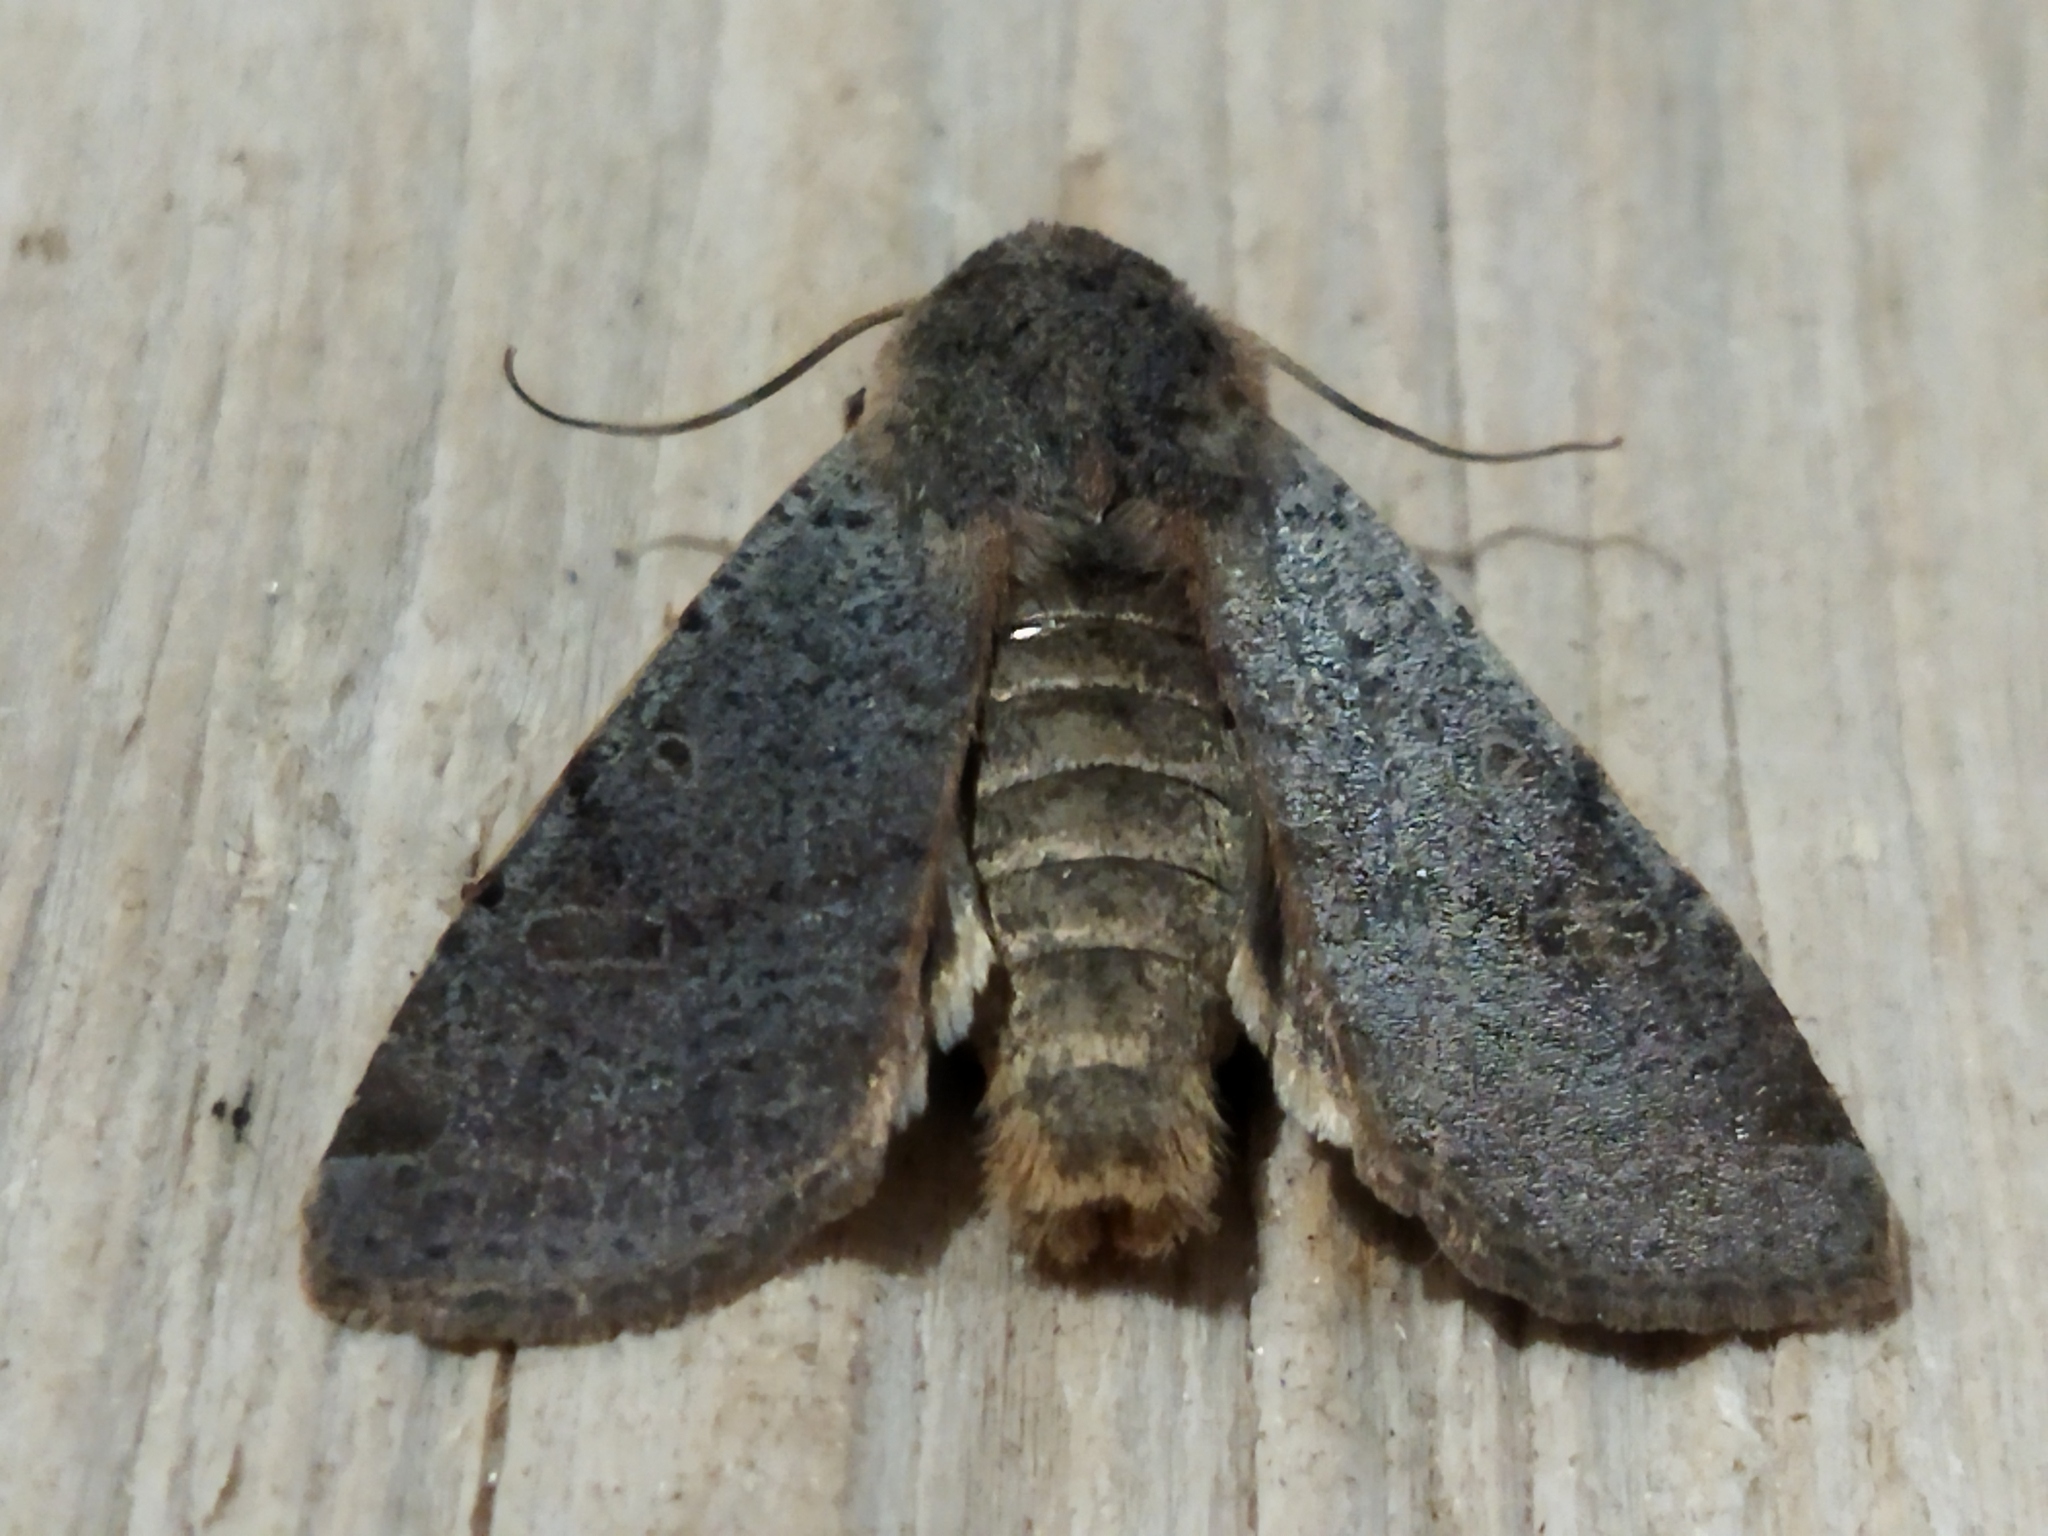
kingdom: Animalia
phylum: Arthropoda
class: Insecta
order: Lepidoptera
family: Noctuidae
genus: Agrochola
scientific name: Agrochola lychnidis
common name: Beaded chestnut
